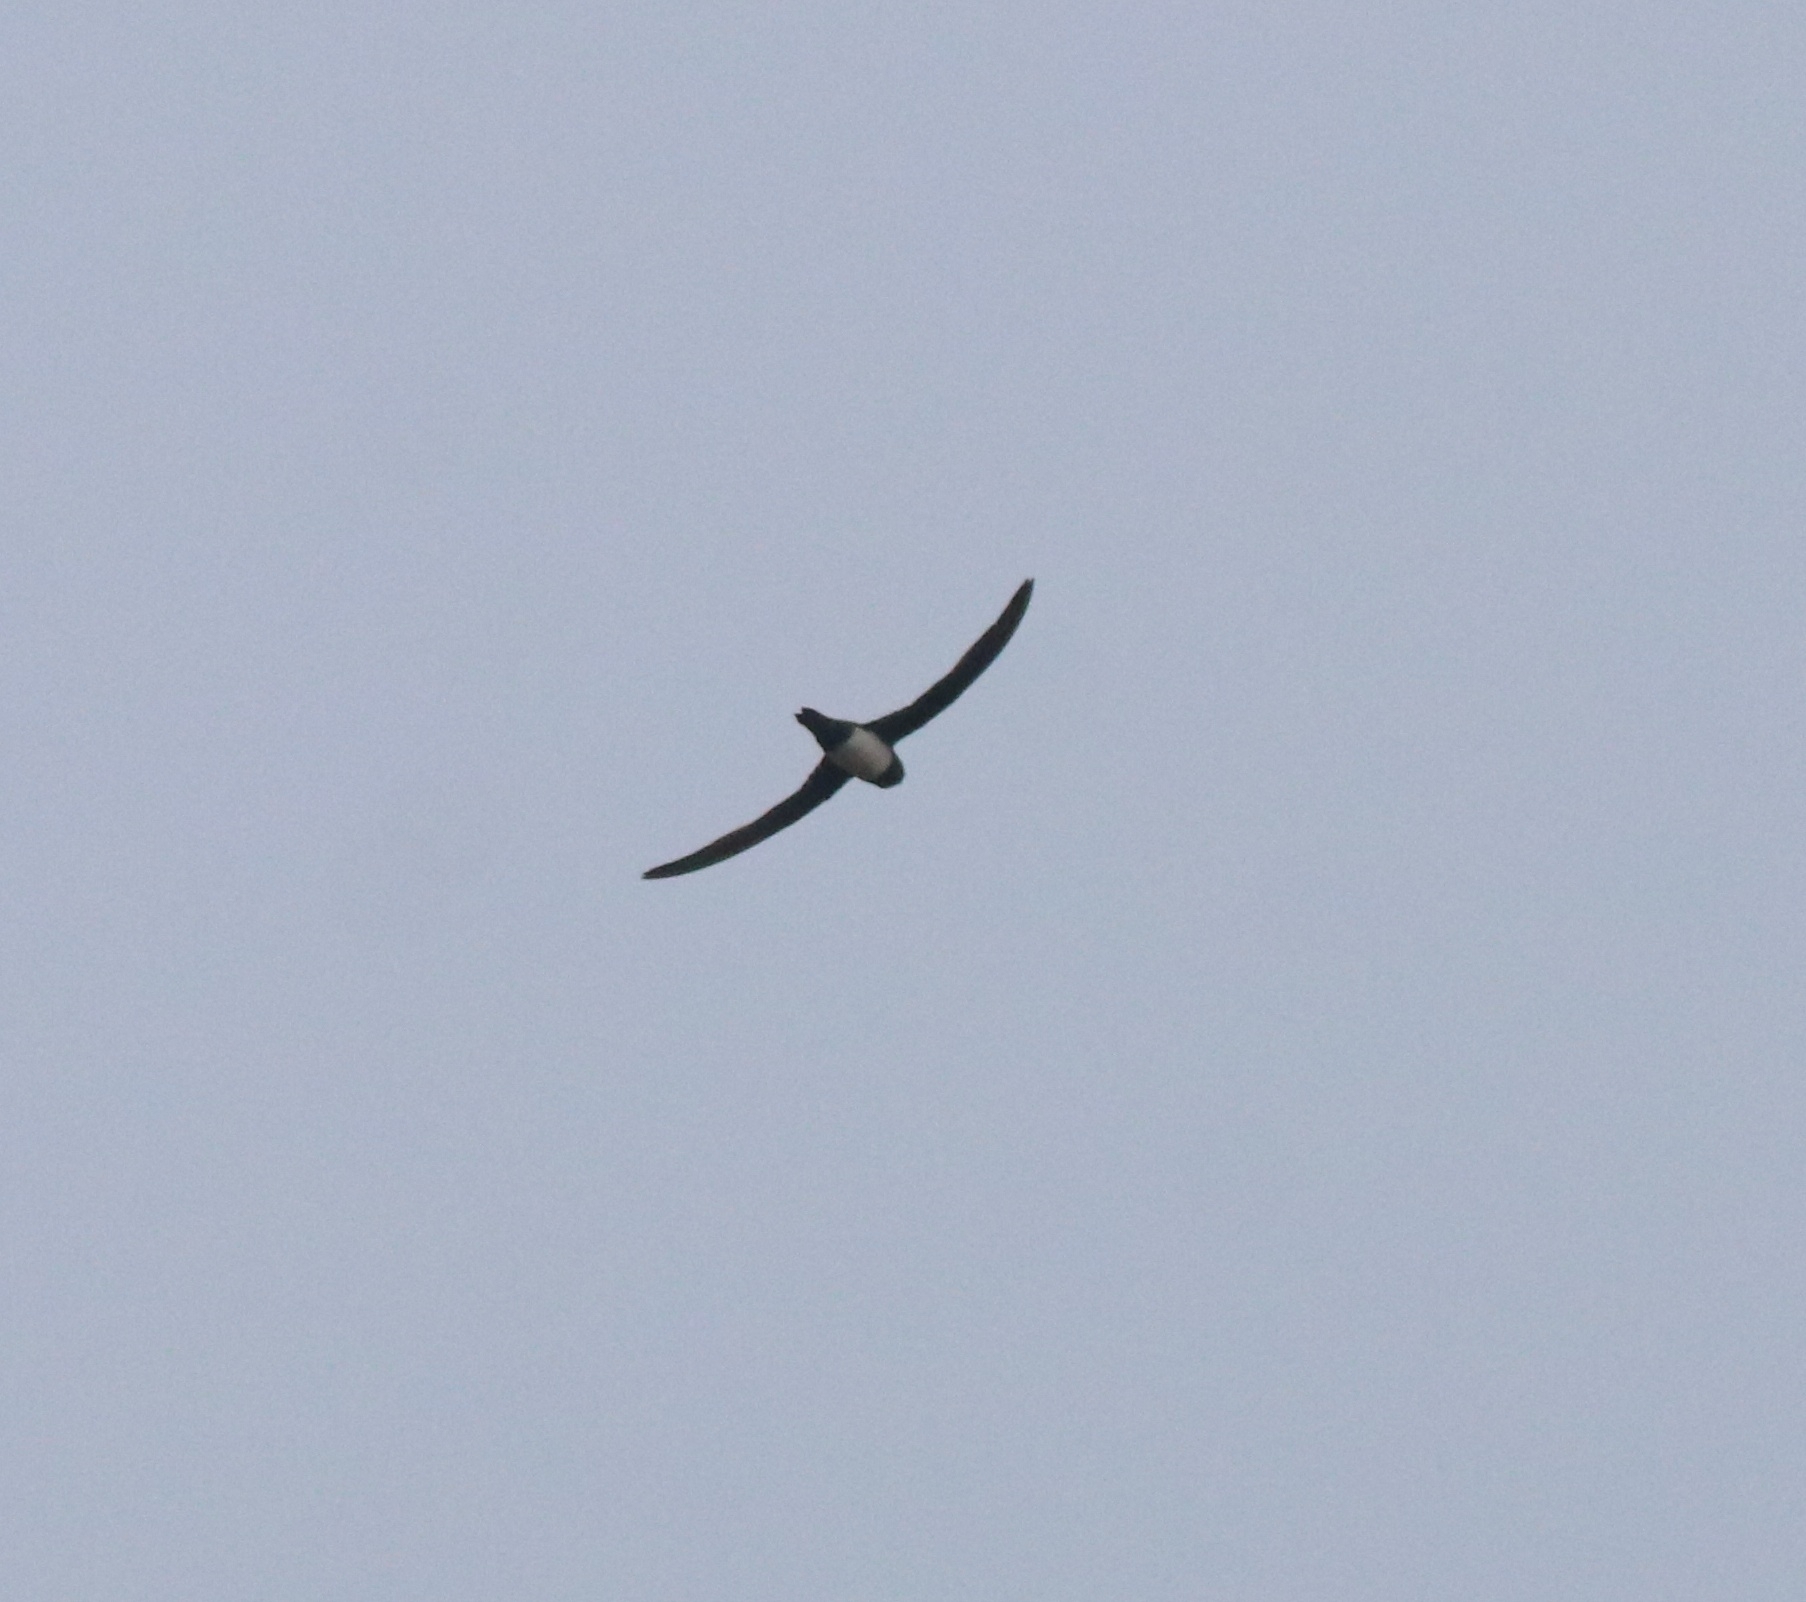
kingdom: Animalia
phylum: Chordata
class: Aves
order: Apodiformes
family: Apodidae
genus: Tachymarptis
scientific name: Tachymarptis melba
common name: Alpine swift
